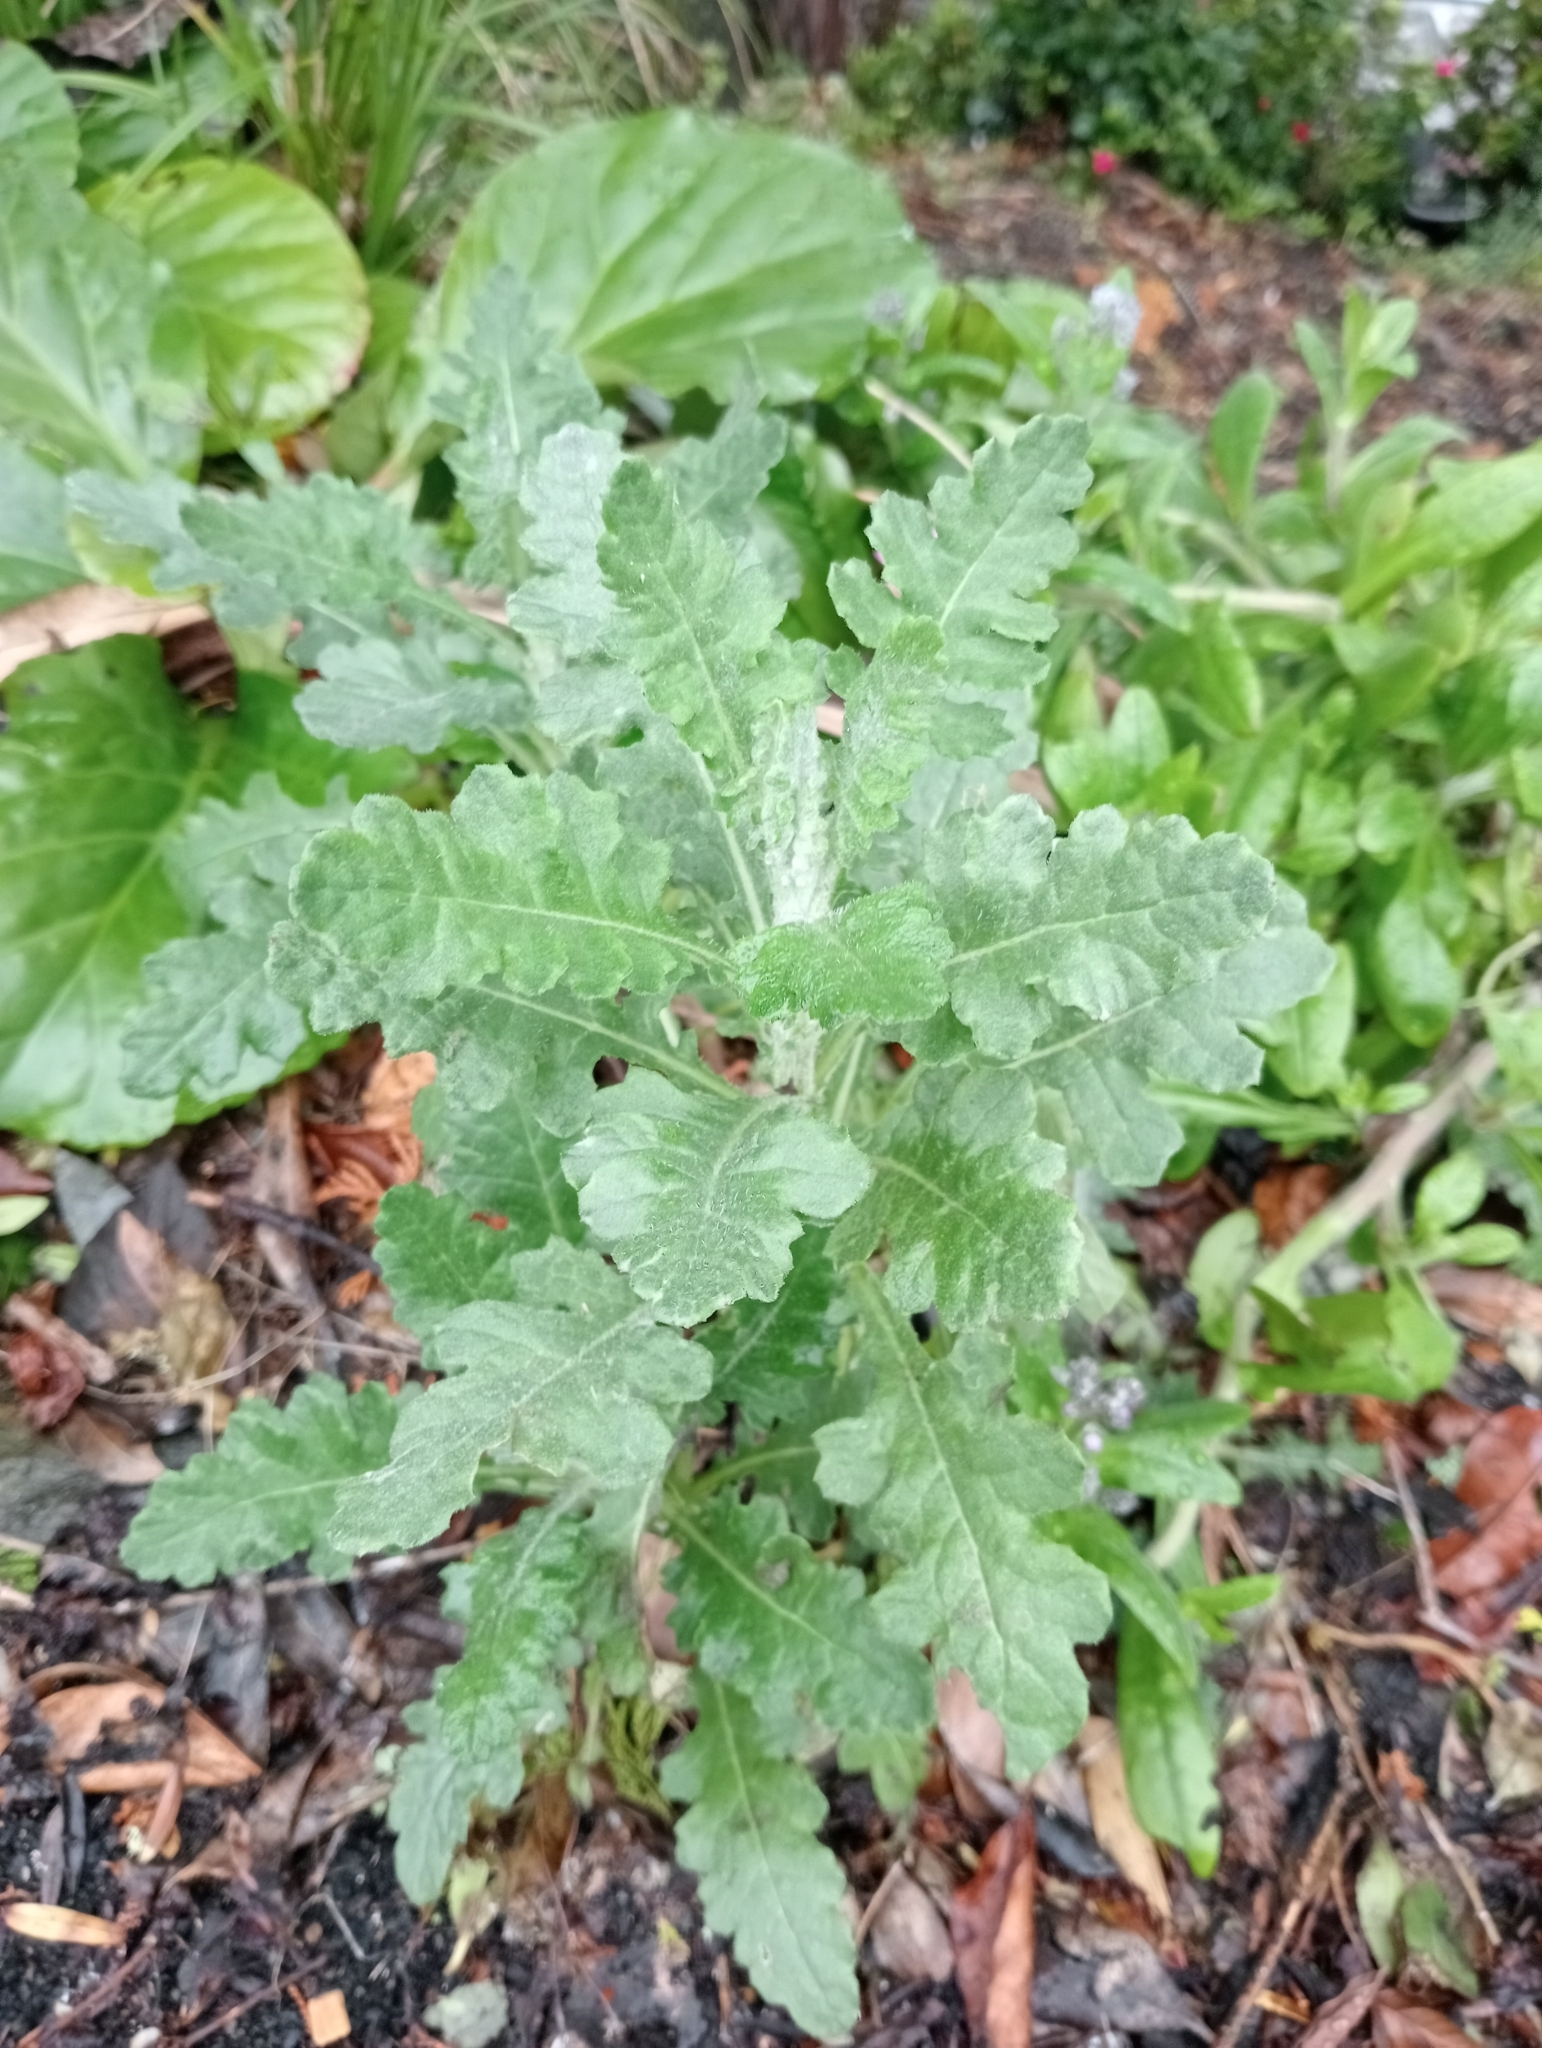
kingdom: Plantae
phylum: Tracheophyta
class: Magnoliopsida
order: Asterales
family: Asteraceae
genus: Senecio
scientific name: Senecio glomeratus
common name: Cutleaf burnweed
